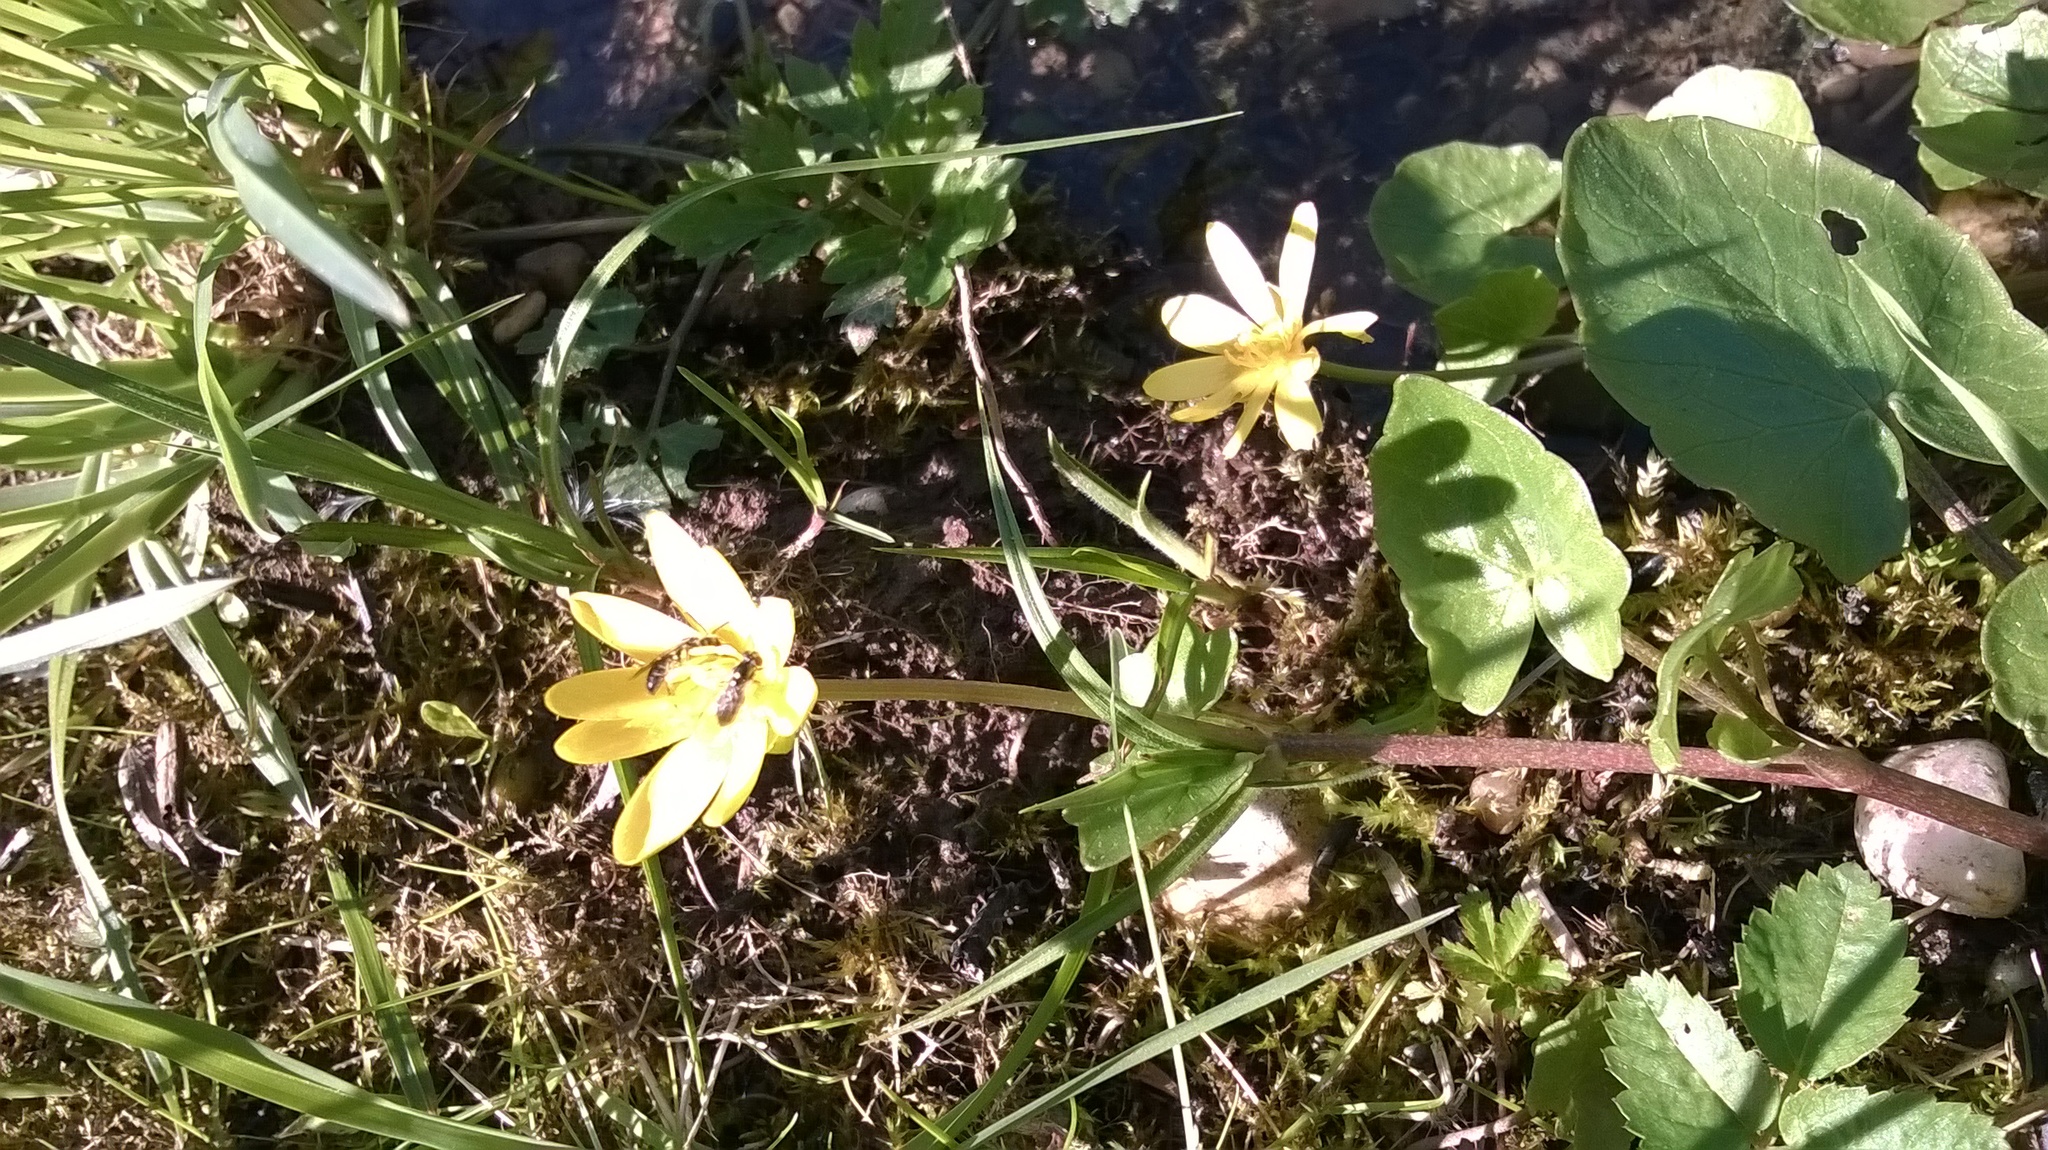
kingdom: Plantae
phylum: Tracheophyta
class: Magnoliopsida
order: Ranunculales
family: Ranunculaceae
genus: Ficaria
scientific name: Ficaria verna
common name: Lesser celandine
